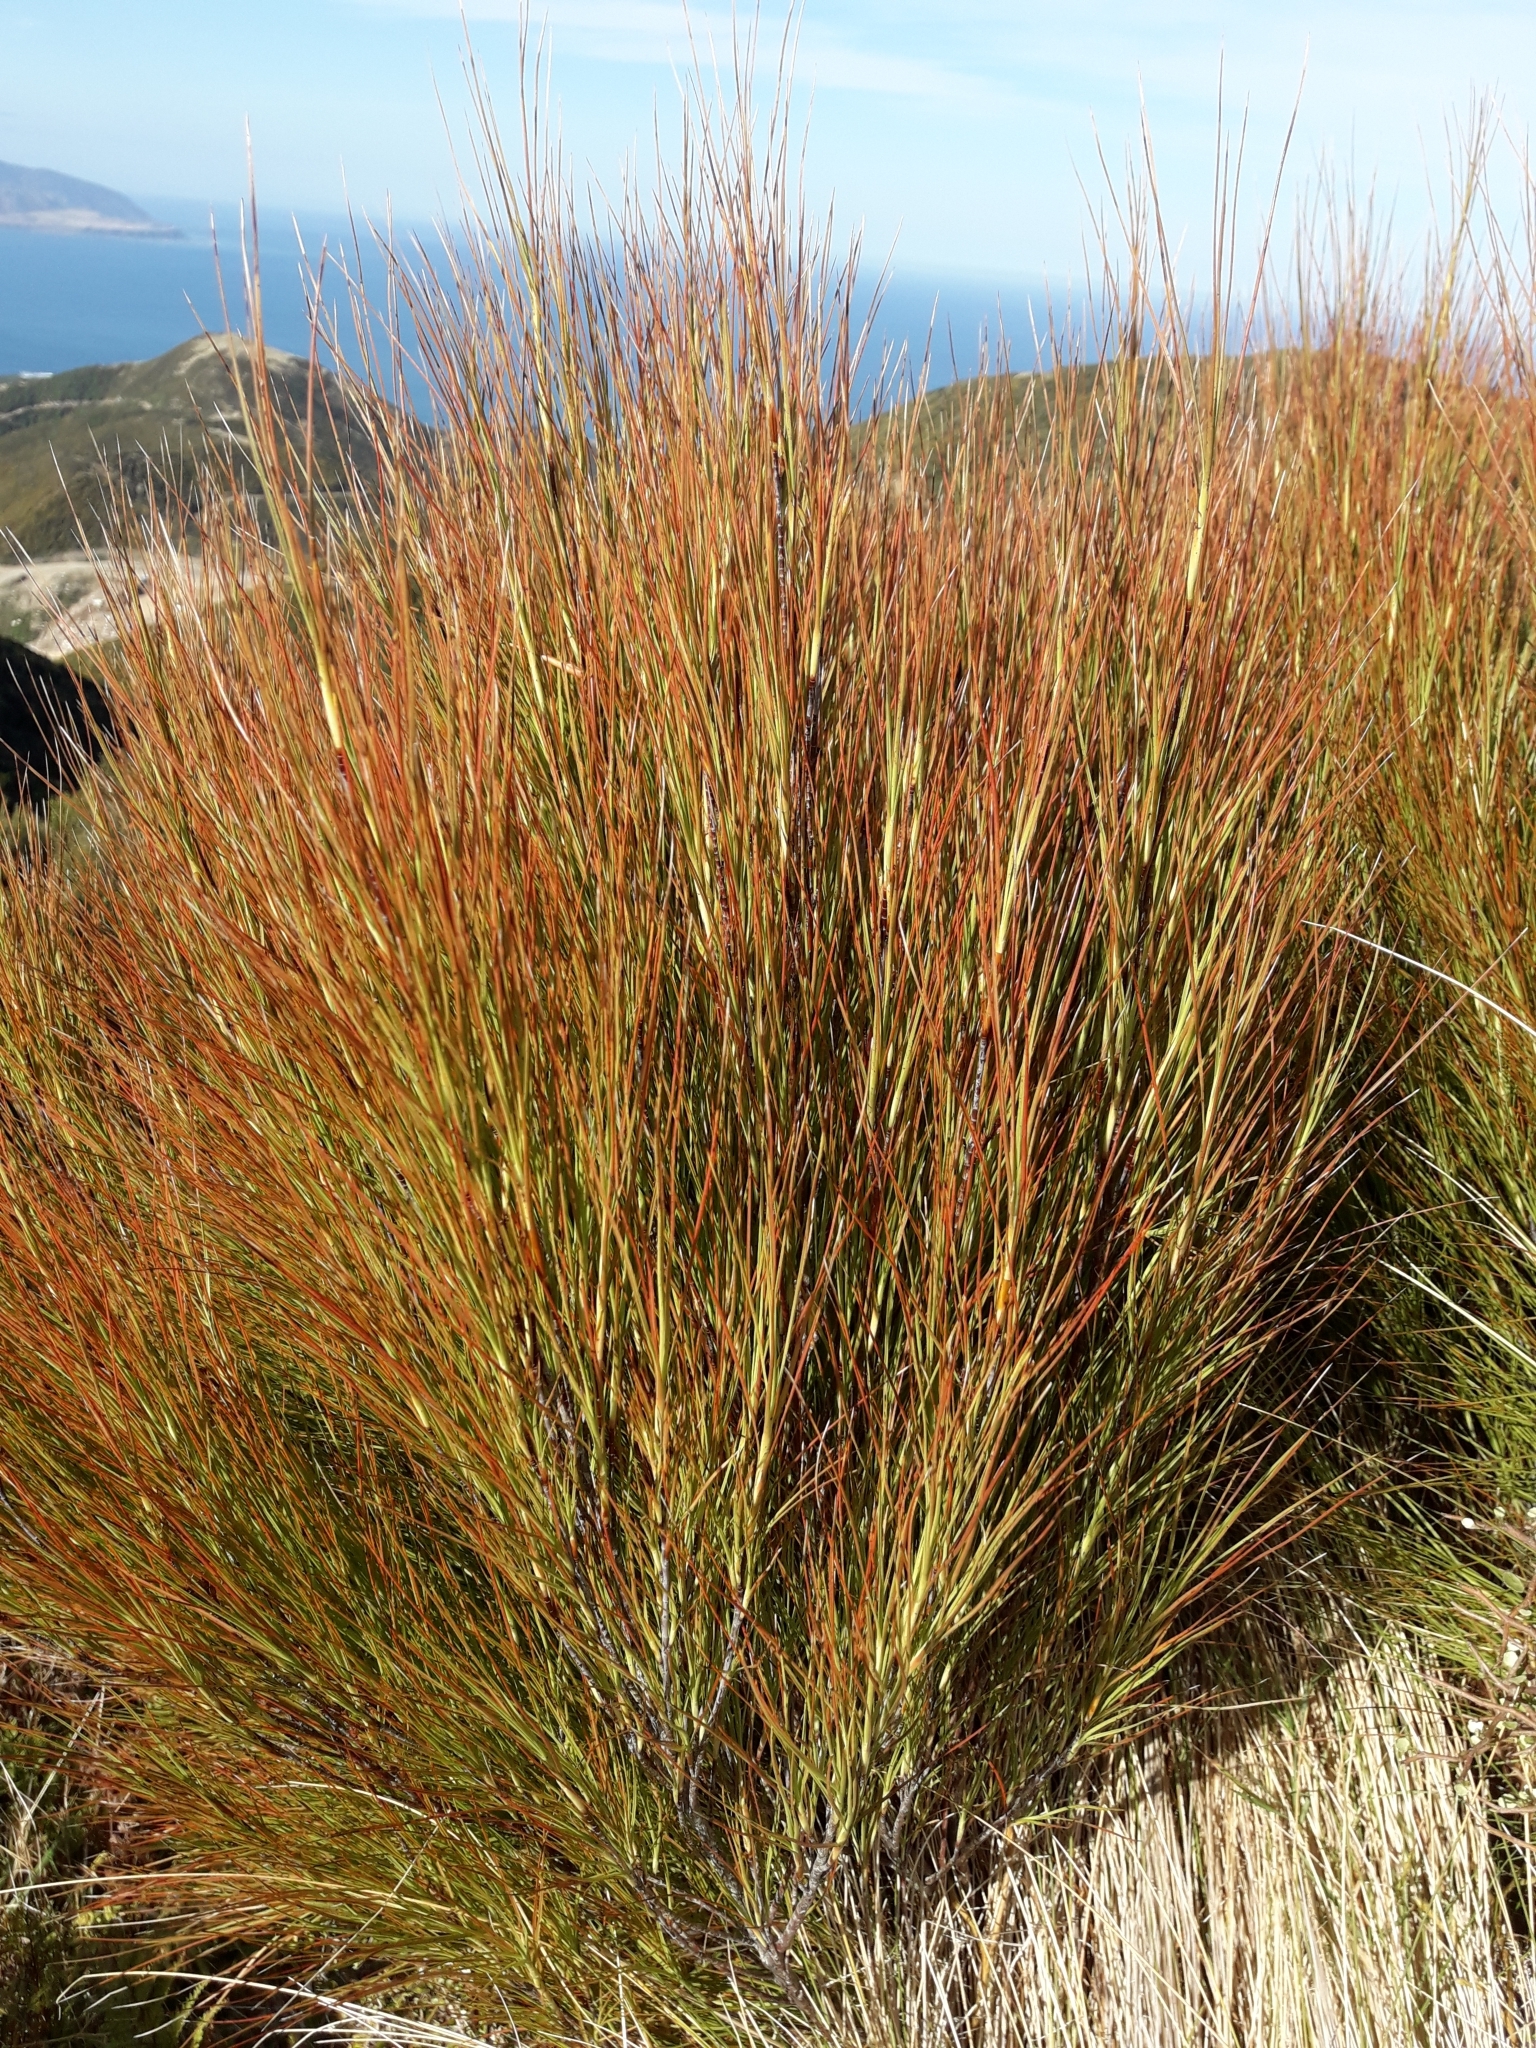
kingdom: Plantae
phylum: Tracheophyta
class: Magnoliopsida
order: Ericales
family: Ericaceae
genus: Dracophyllum
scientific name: Dracophyllum filifolium
